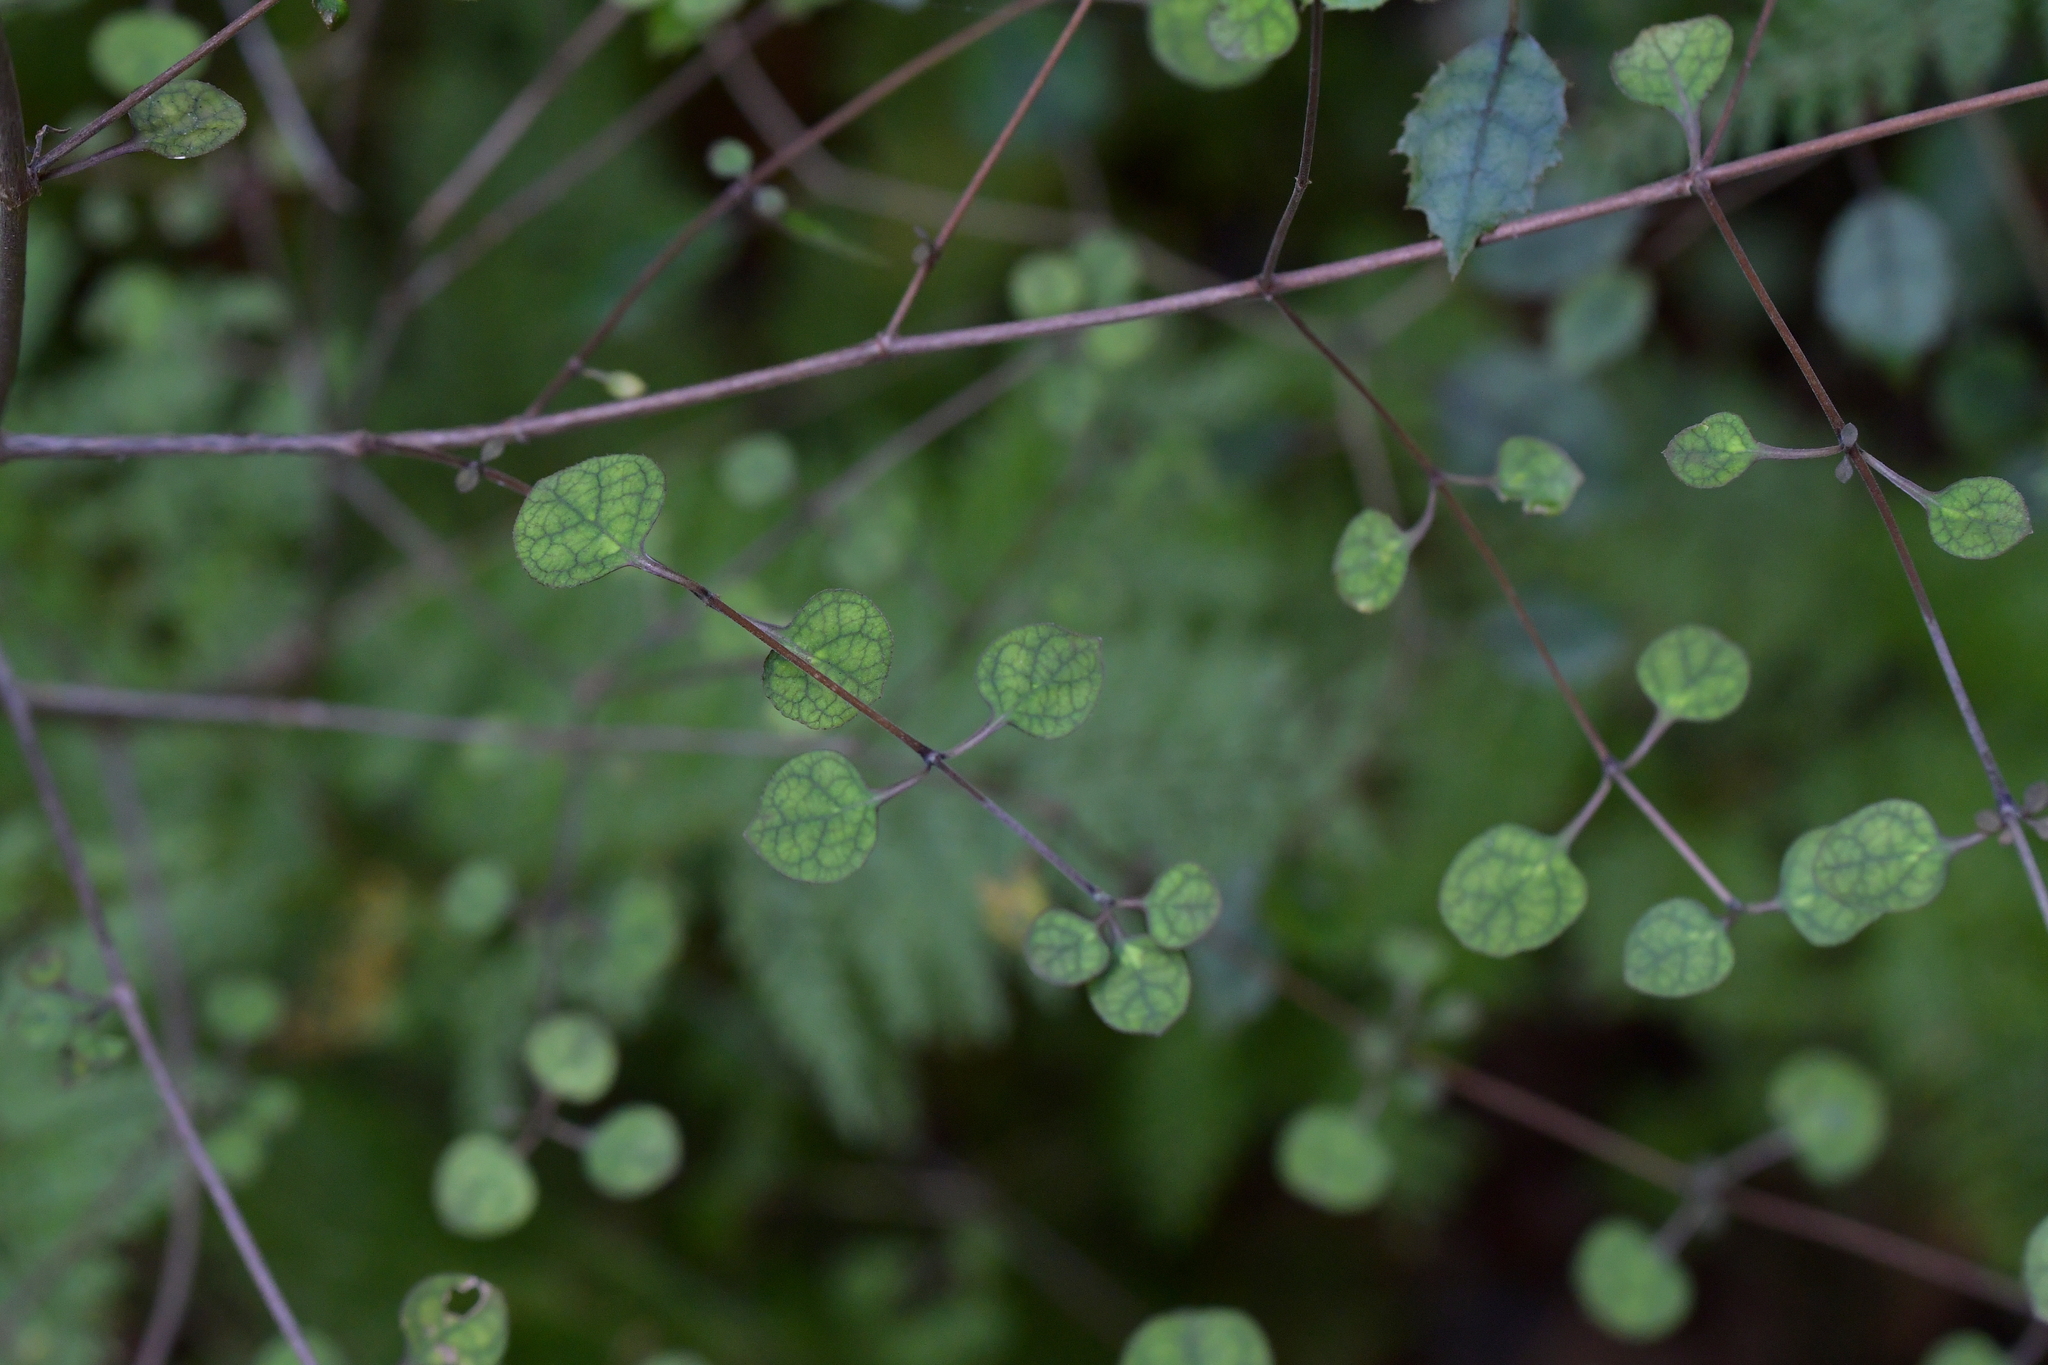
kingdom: Plantae
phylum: Tracheophyta
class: Magnoliopsida
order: Gentianales
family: Rubiaceae
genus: Coprosma
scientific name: Coprosma tenuicaulis
